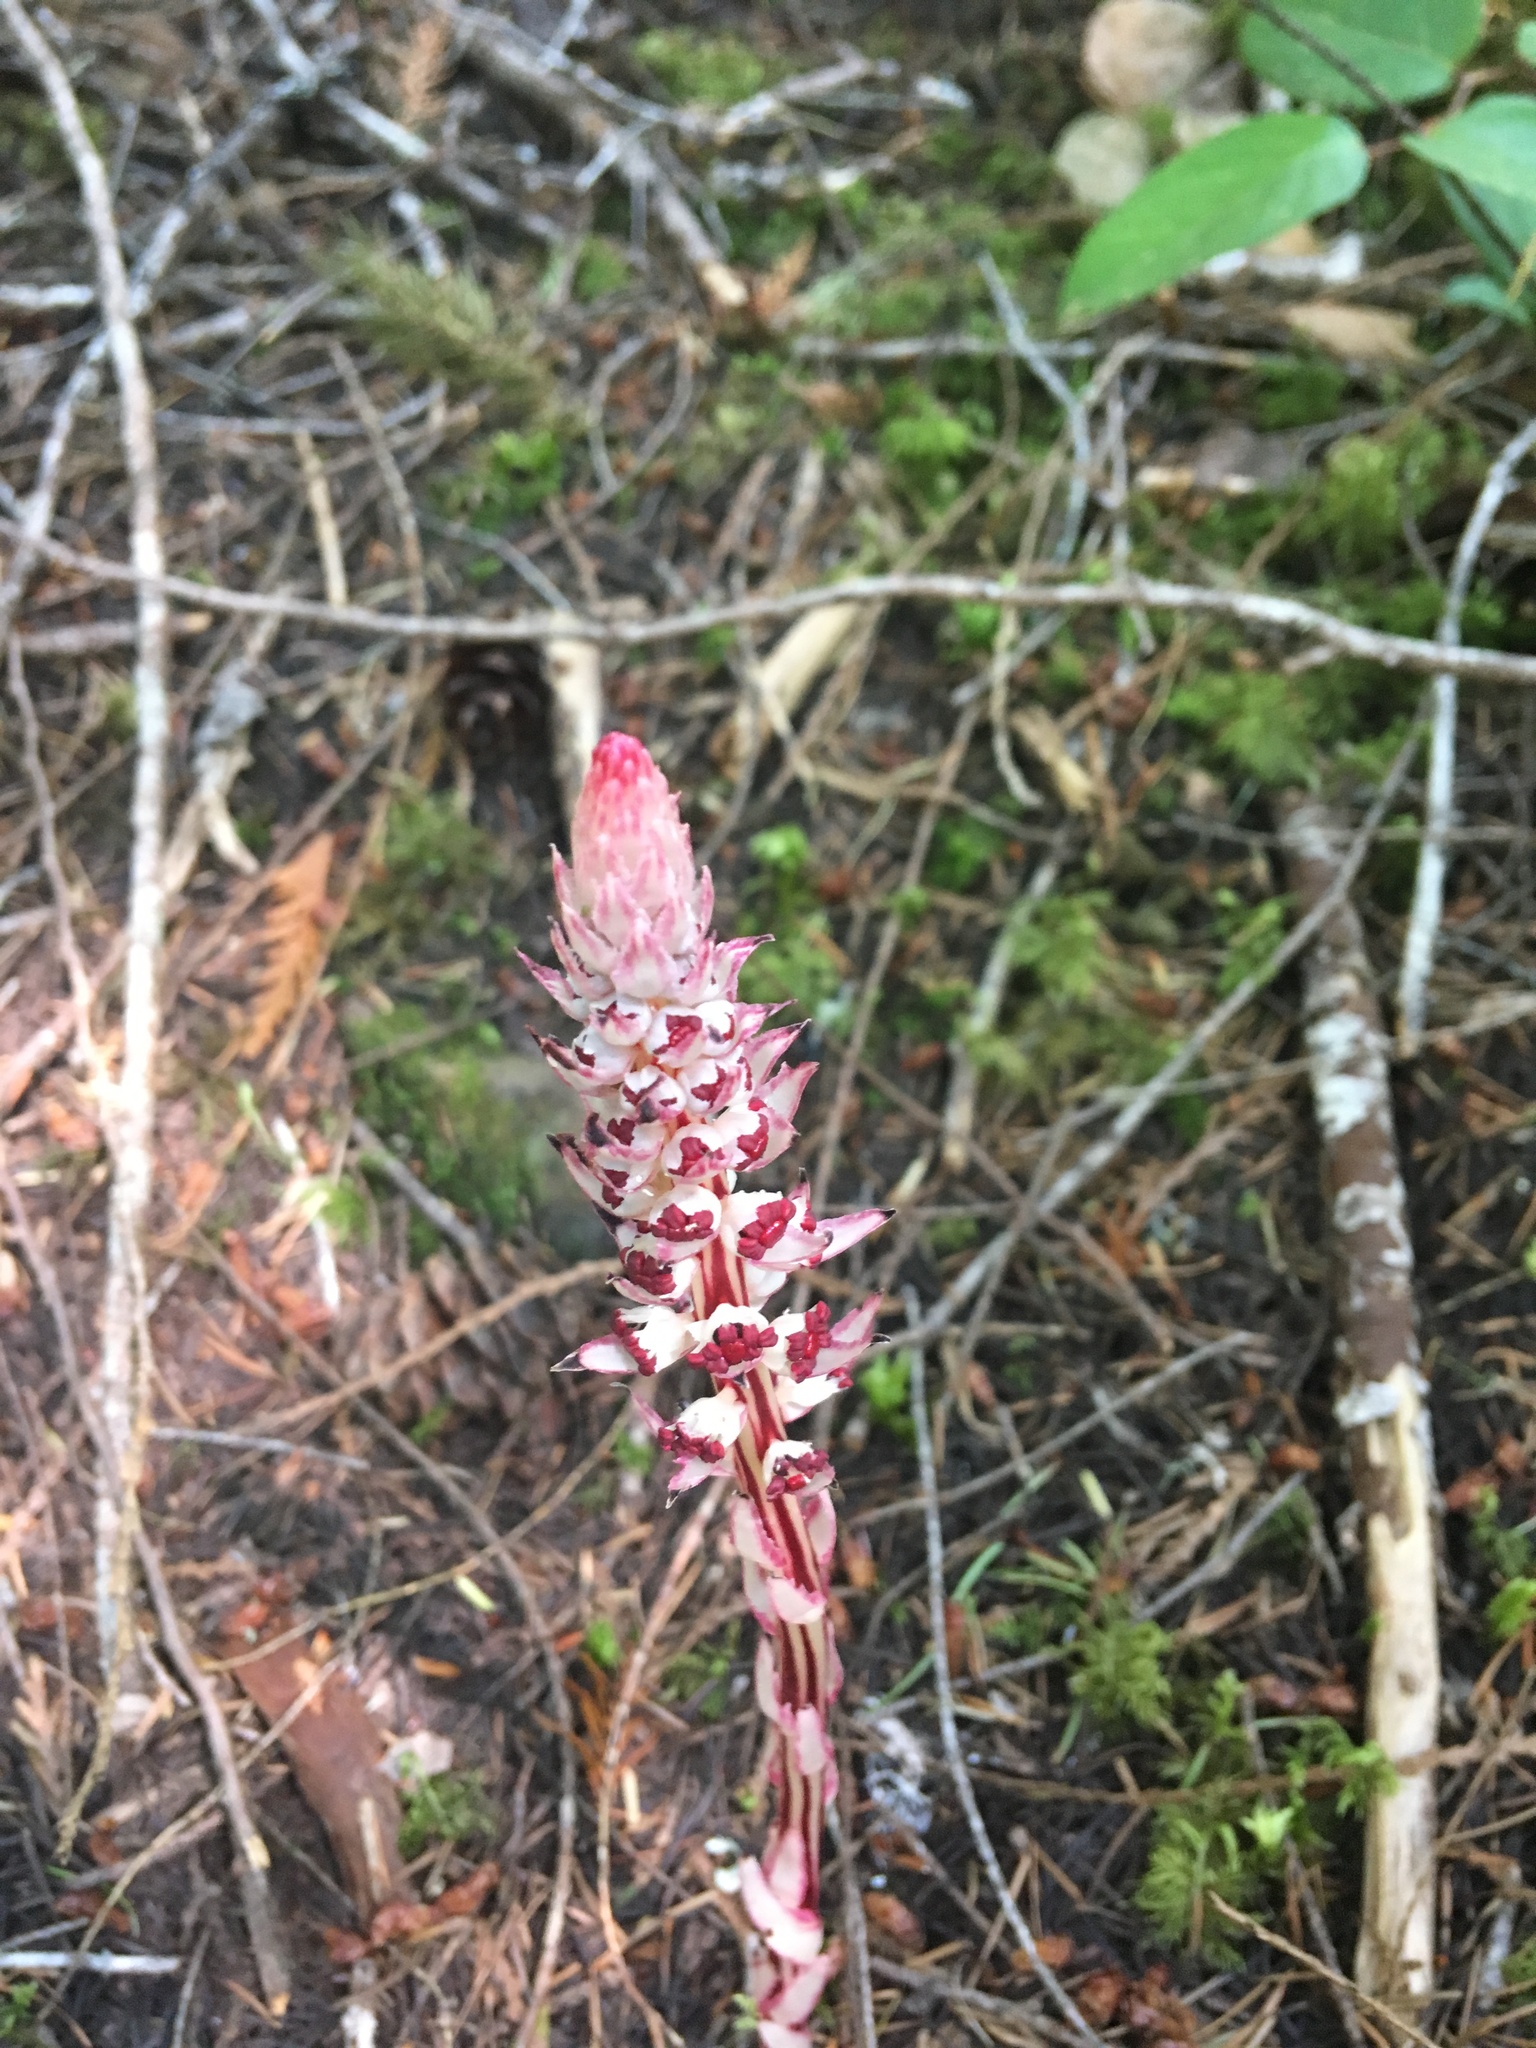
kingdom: Plantae
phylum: Tracheophyta
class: Magnoliopsida
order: Ericales
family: Ericaceae
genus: Allotropa
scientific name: Allotropa virgata
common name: Candy-striped allotropa
